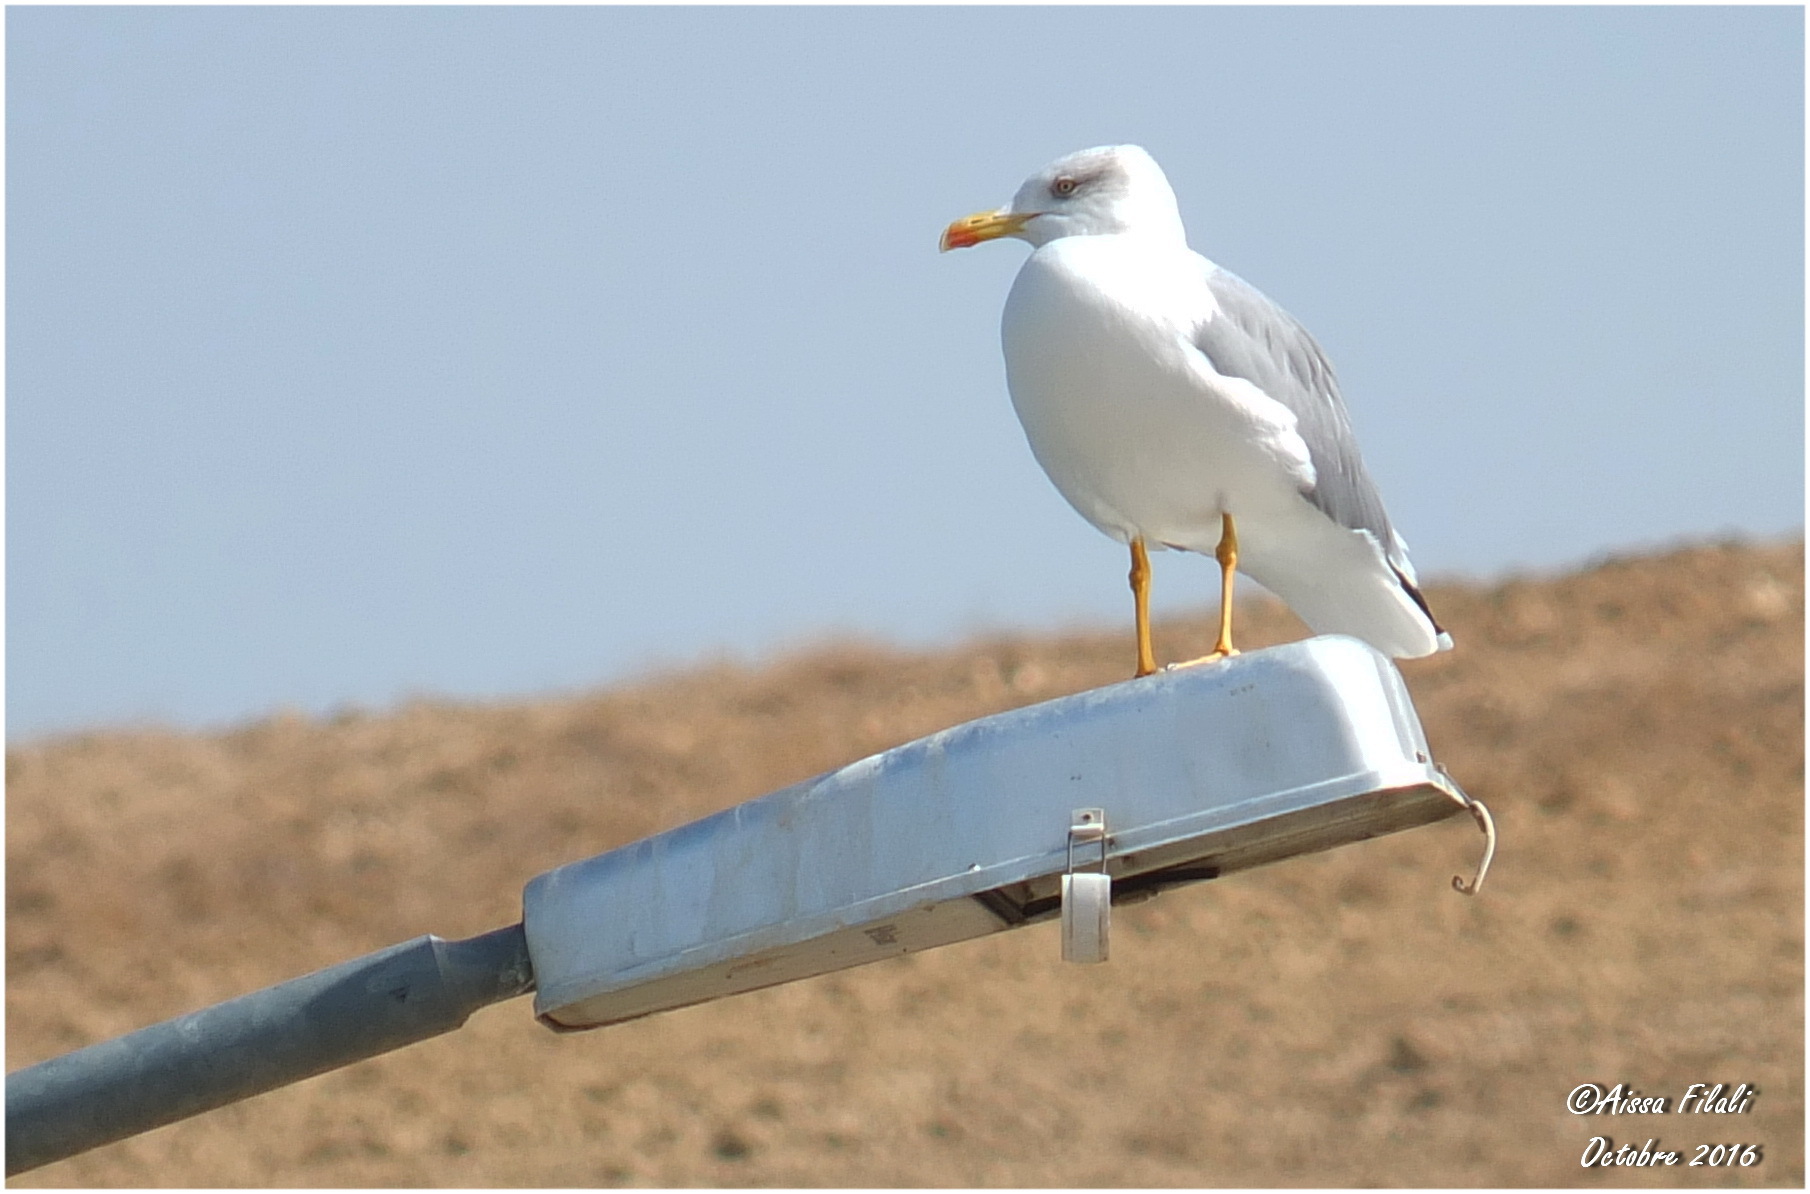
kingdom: Animalia
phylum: Chordata
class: Aves
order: Charadriiformes
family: Laridae
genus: Larus
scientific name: Larus michahellis
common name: Yellow-legged gull
